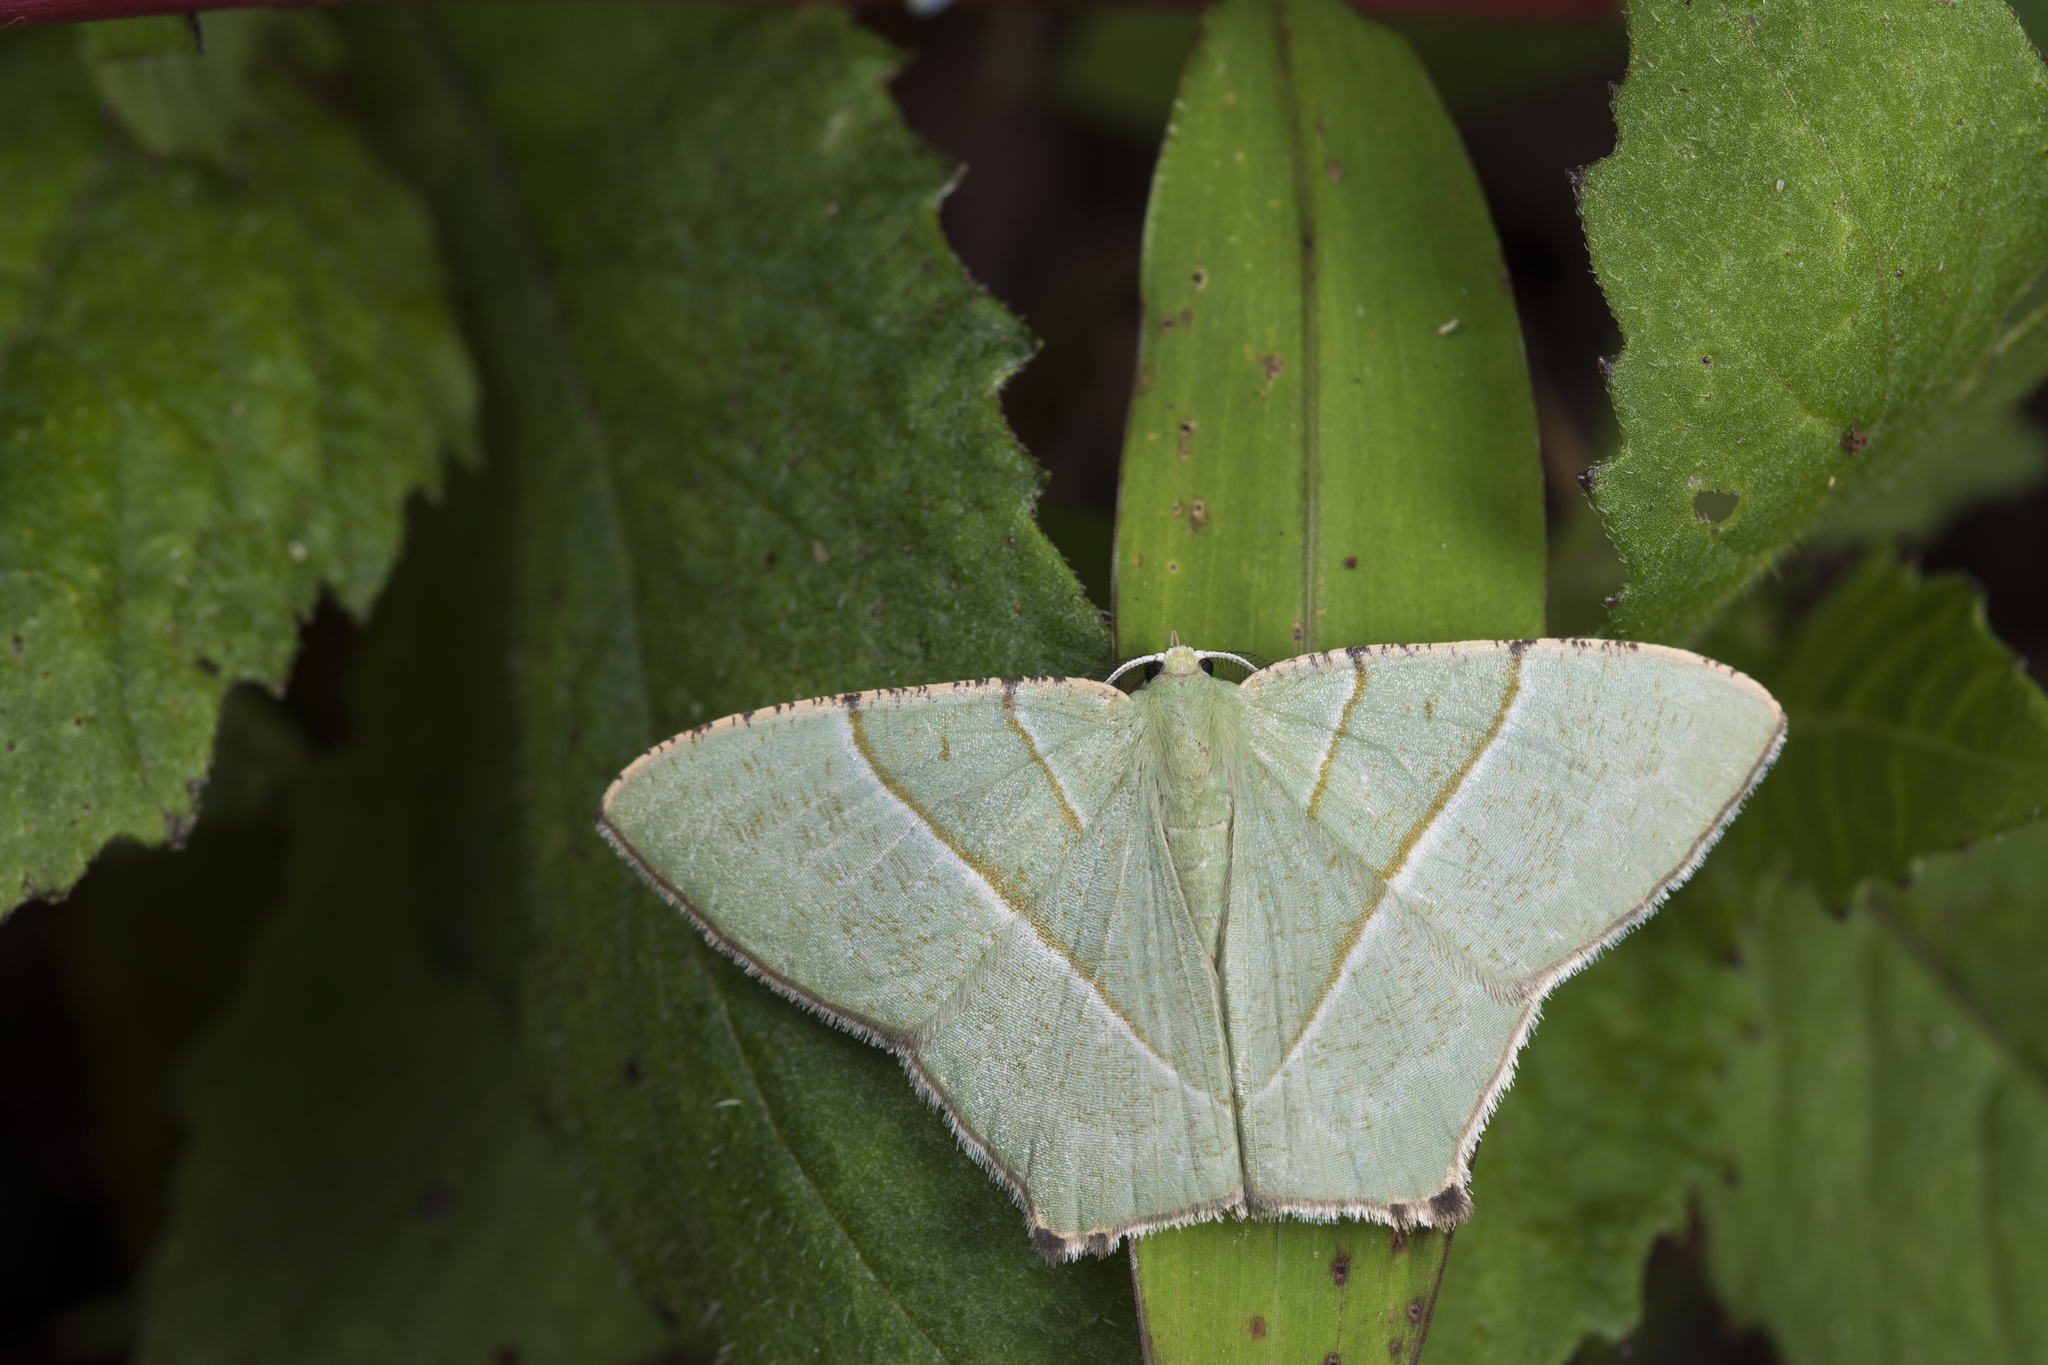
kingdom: Animalia
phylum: Arthropoda
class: Insecta
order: Lepidoptera
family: Geometridae
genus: Neohipparchus
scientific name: Neohipparchus vallata
